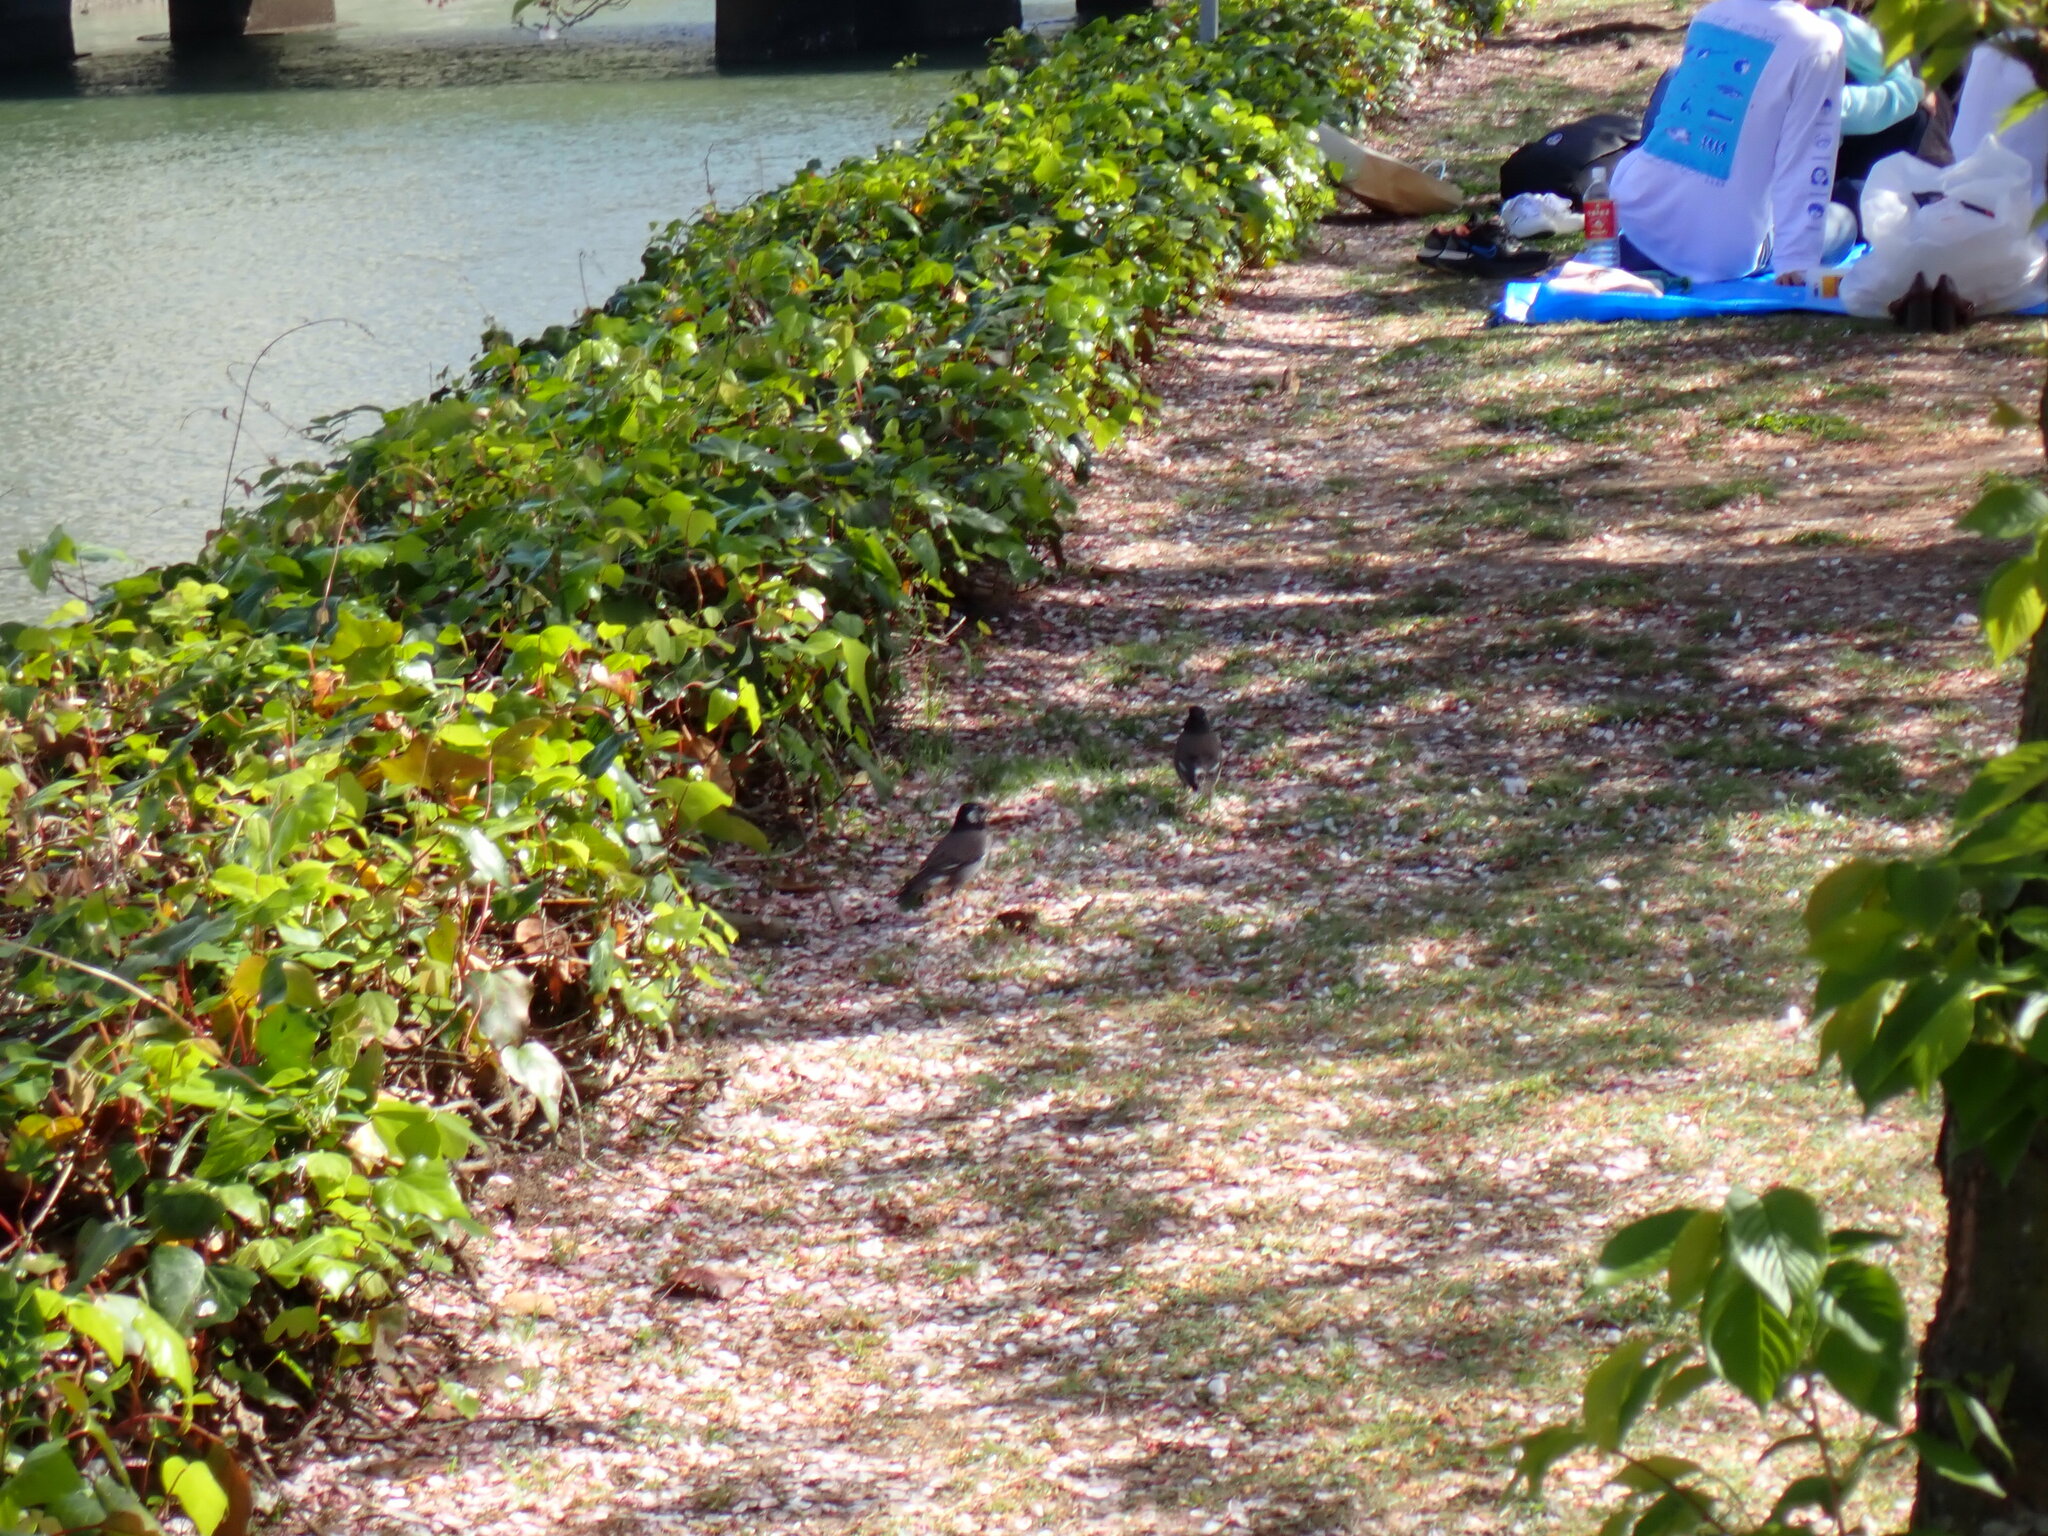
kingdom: Animalia
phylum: Chordata
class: Aves
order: Passeriformes
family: Sturnidae
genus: Spodiopsar
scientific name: Spodiopsar cineraceus
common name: White-cheeked starling
